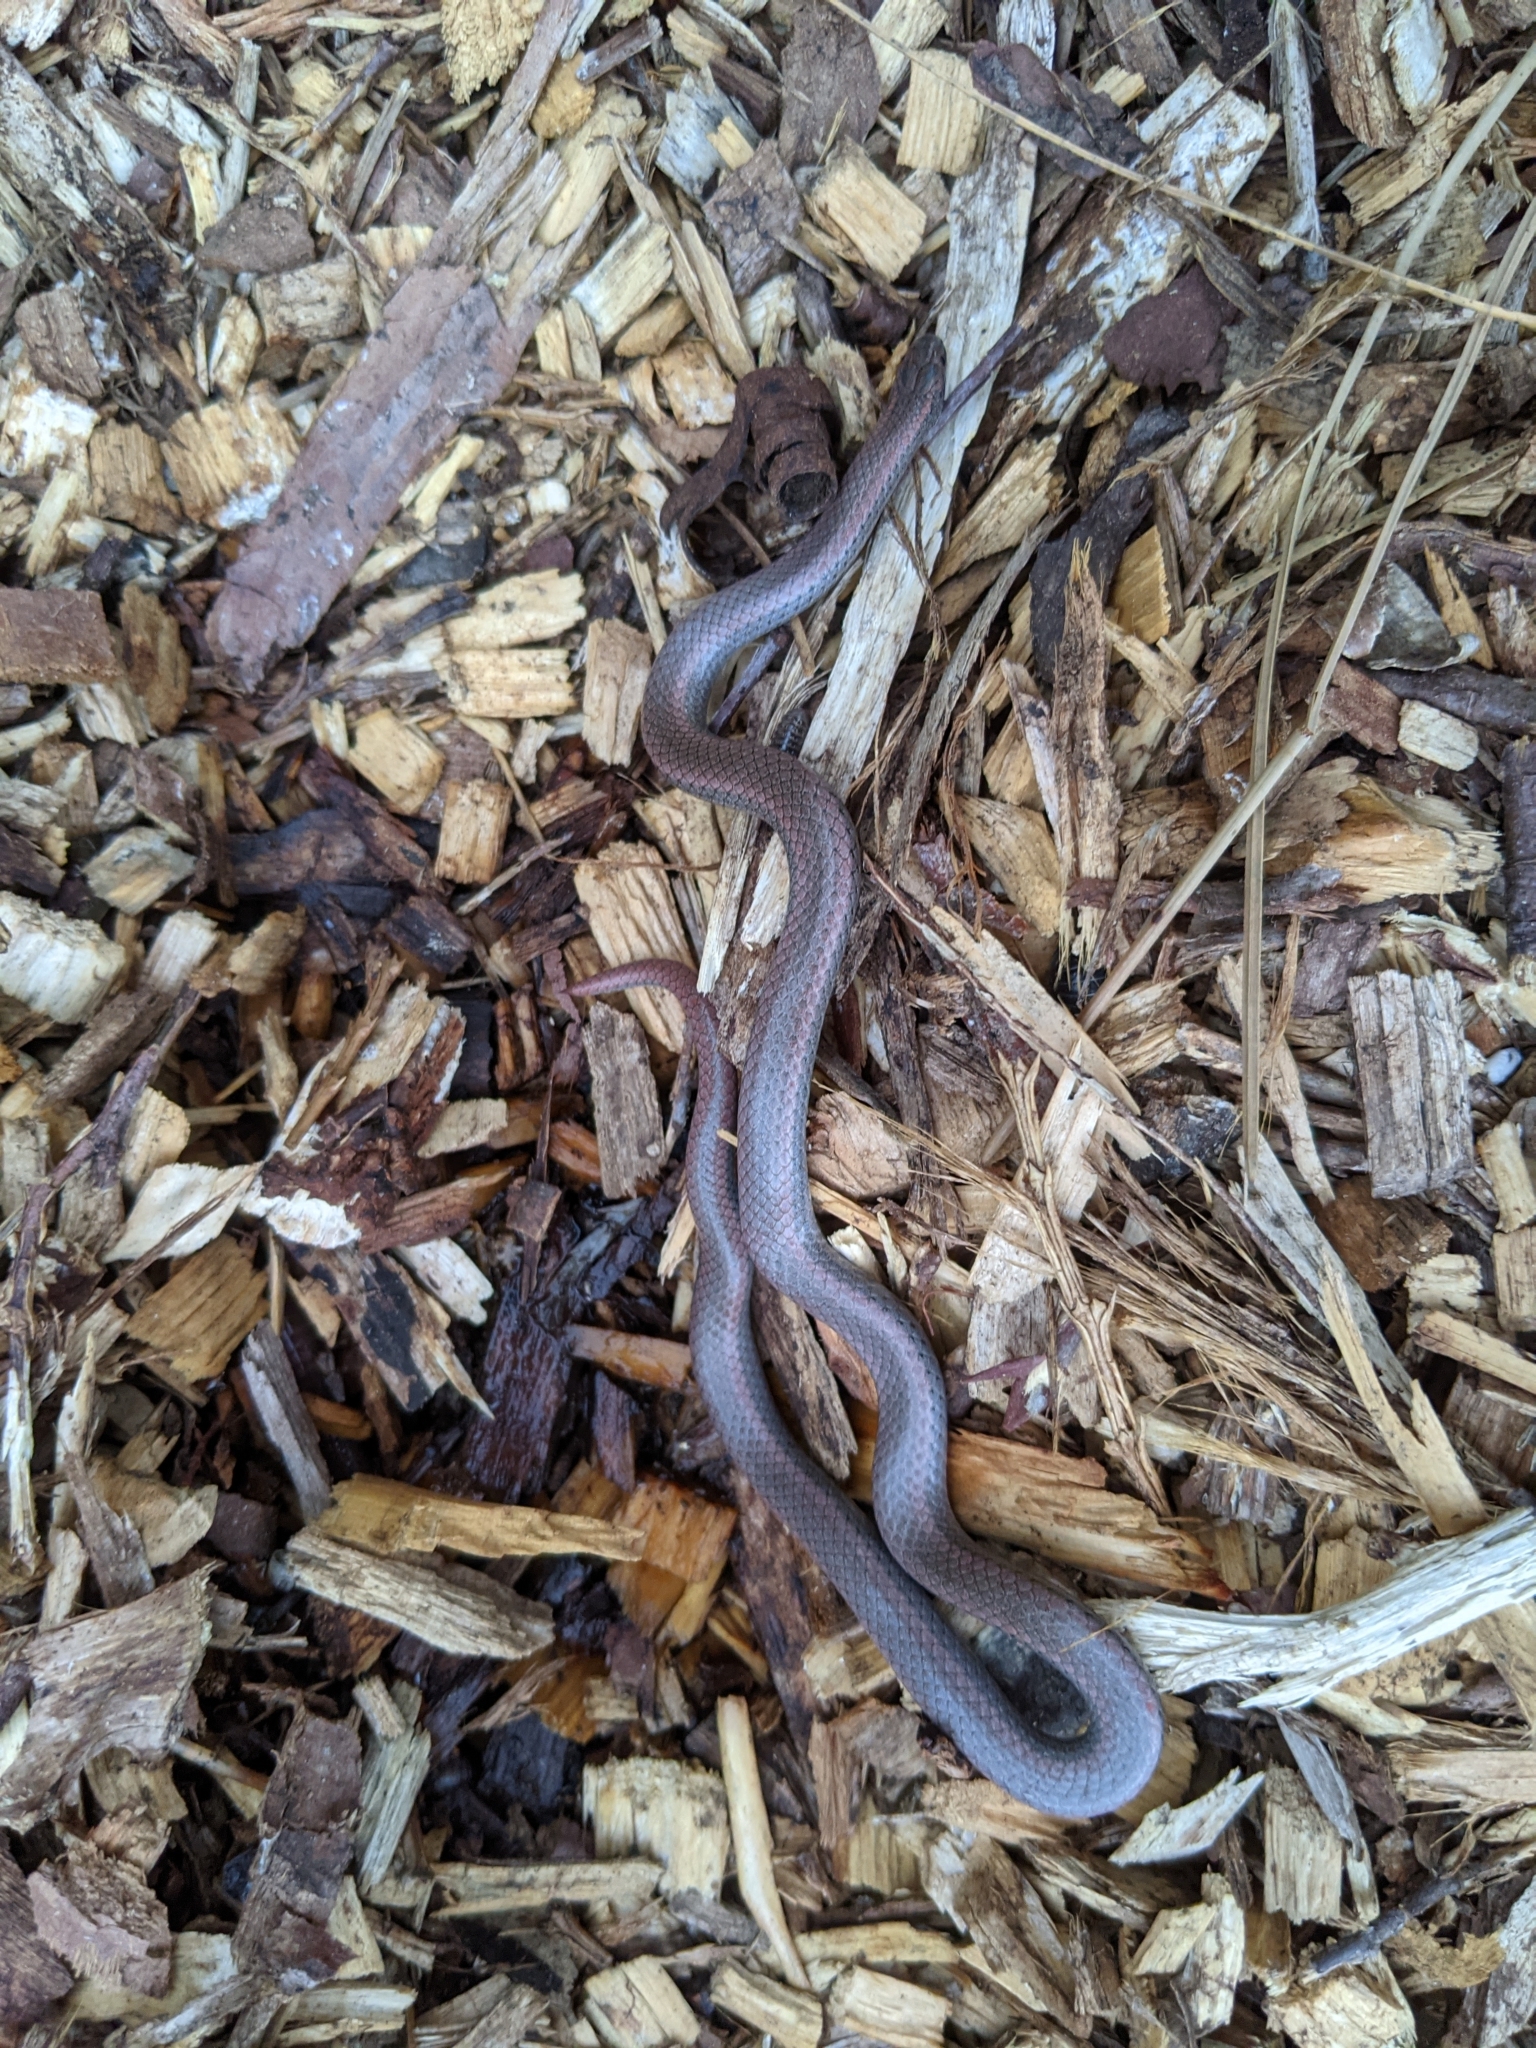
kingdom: Animalia
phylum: Chordata
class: Squamata
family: Colubridae
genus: Contia
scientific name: Contia tenuis
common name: Sharptail snake
